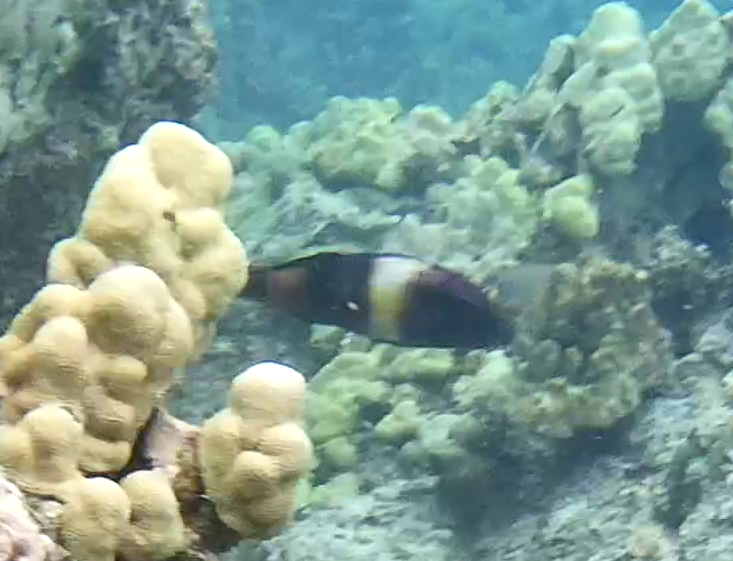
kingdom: Animalia
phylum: Chordata
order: Perciformes
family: Mullidae
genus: Parupeneus
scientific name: Parupeneus multifasciatus
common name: Manybar goatfish
